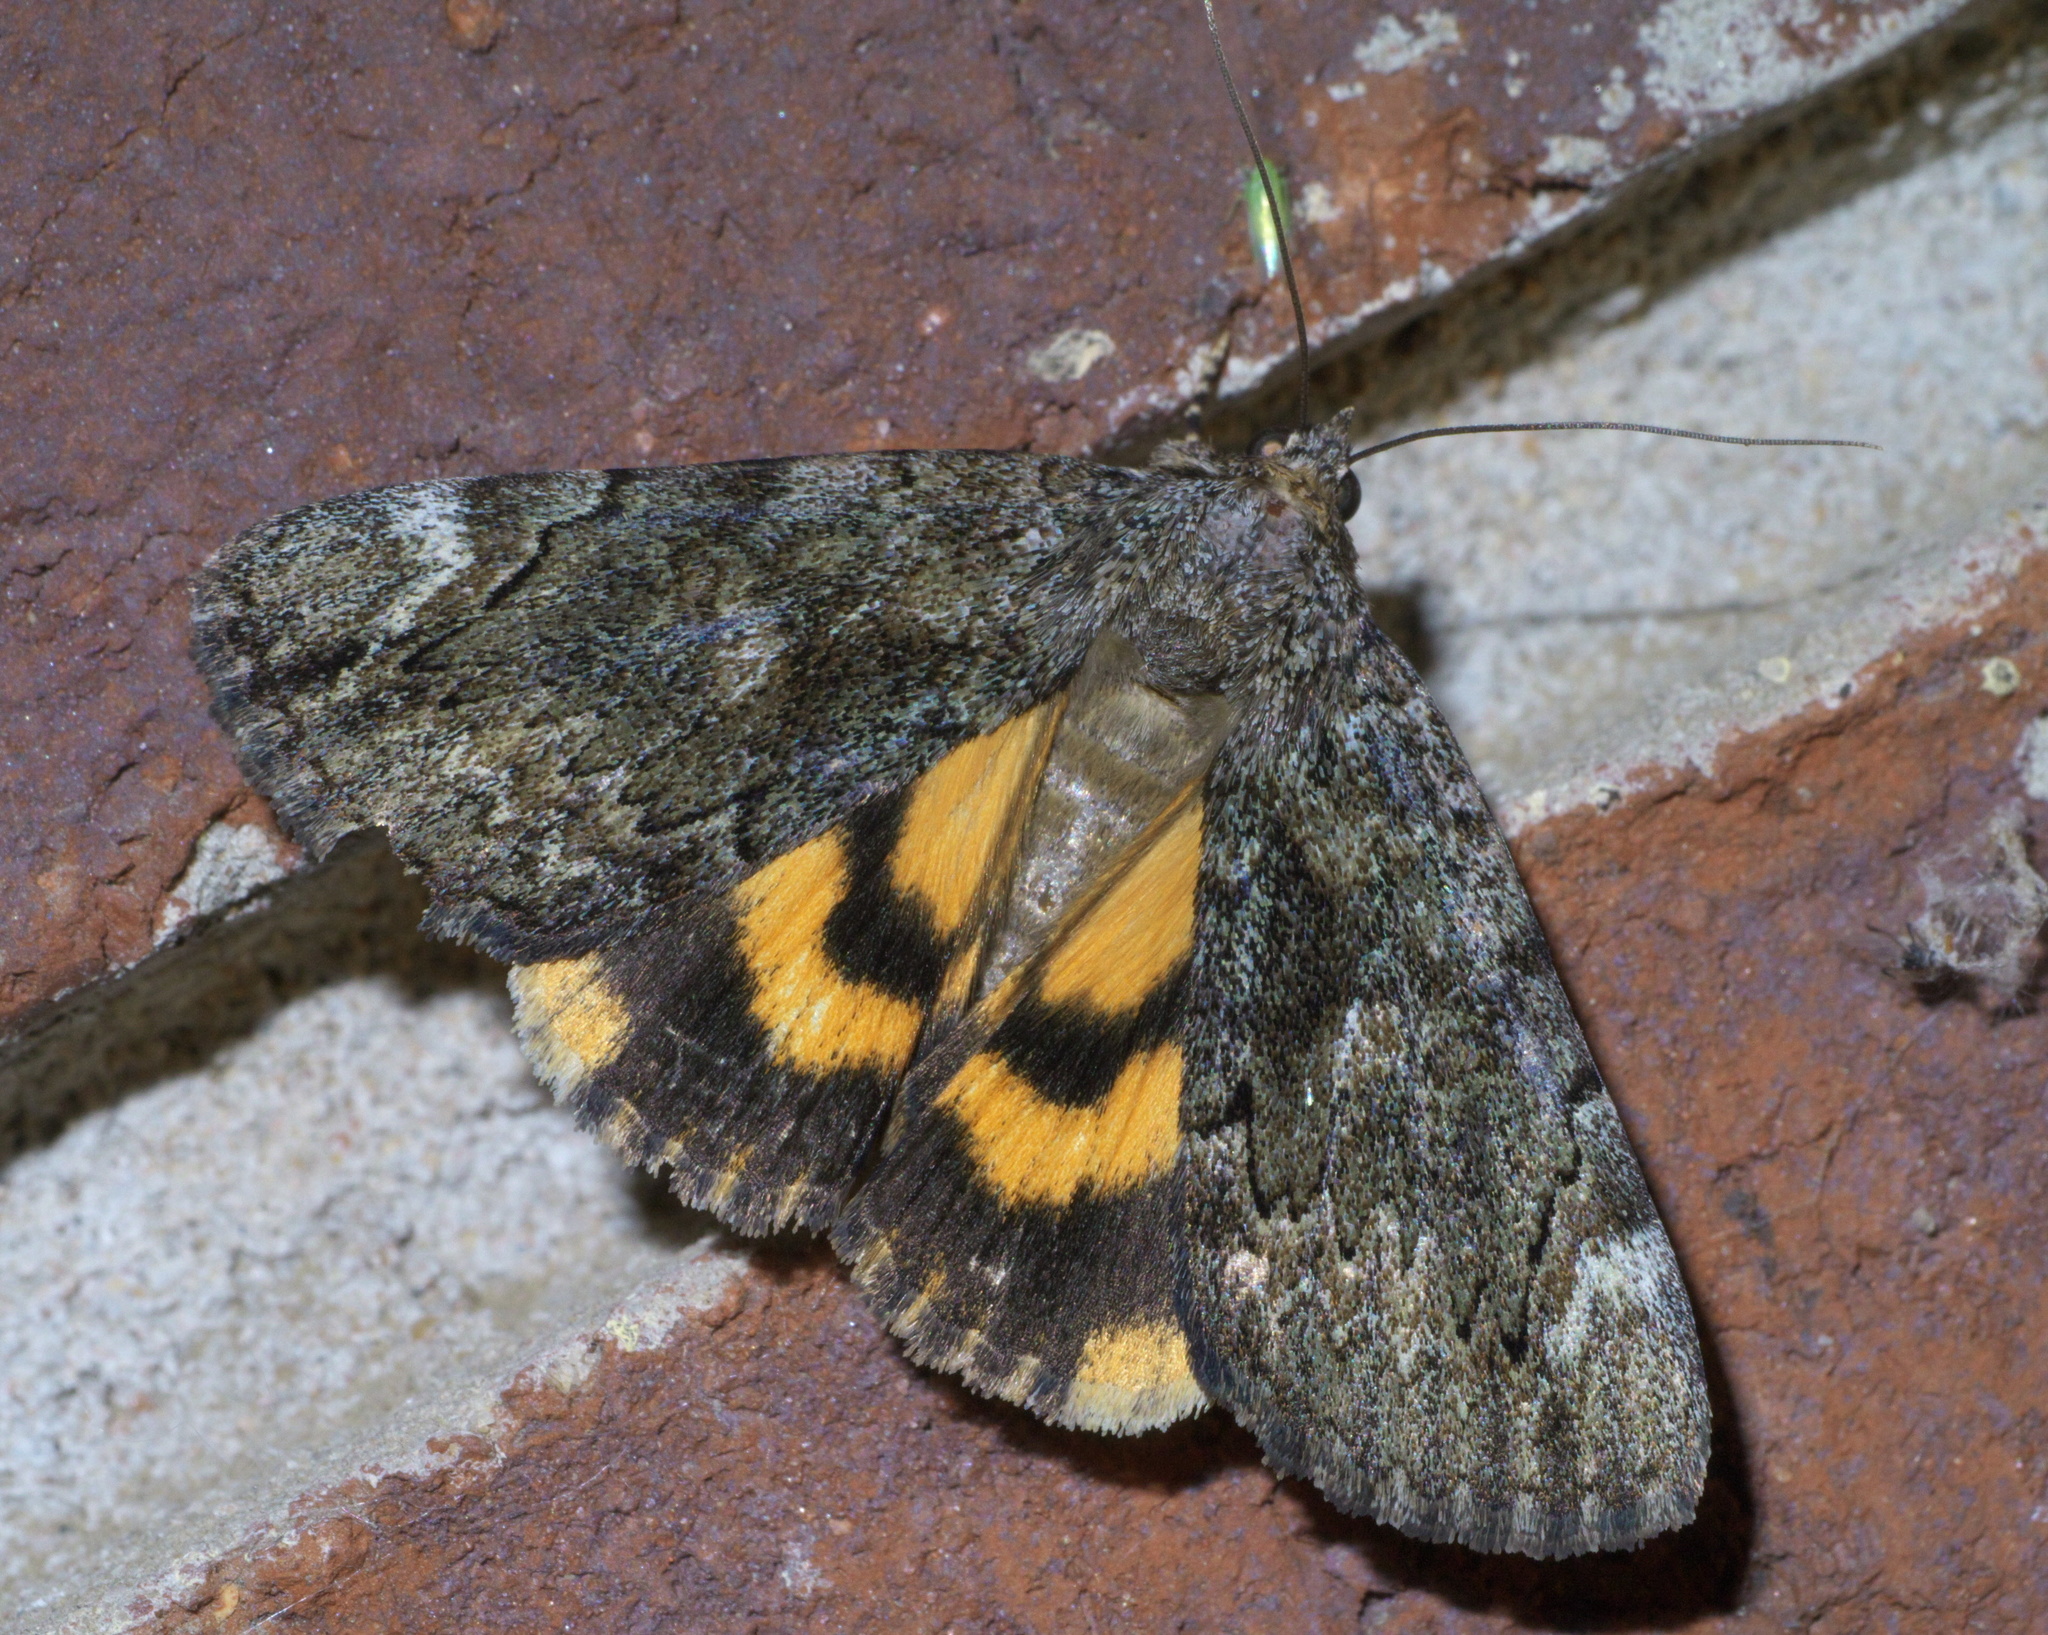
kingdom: Animalia
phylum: Arthropoda
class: Insecta
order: Lepidoptera
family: Erebidae
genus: Catocala
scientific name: Catocala minuta
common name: Little underwing
